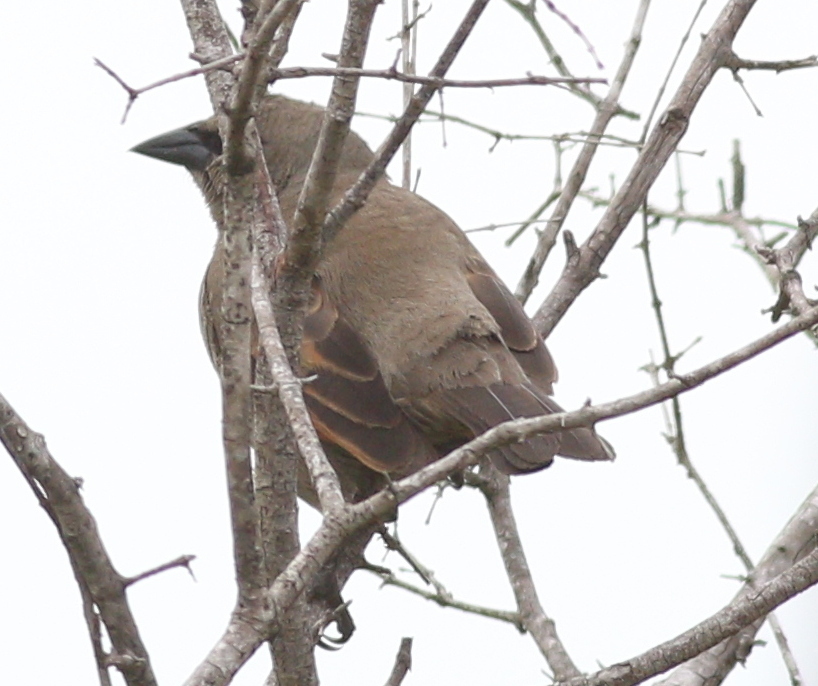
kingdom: Animalia
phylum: Chordata
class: Aves
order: Passeriformes
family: Icteridae
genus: Agelaioides
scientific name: Agelaioides badius
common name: Baywing
